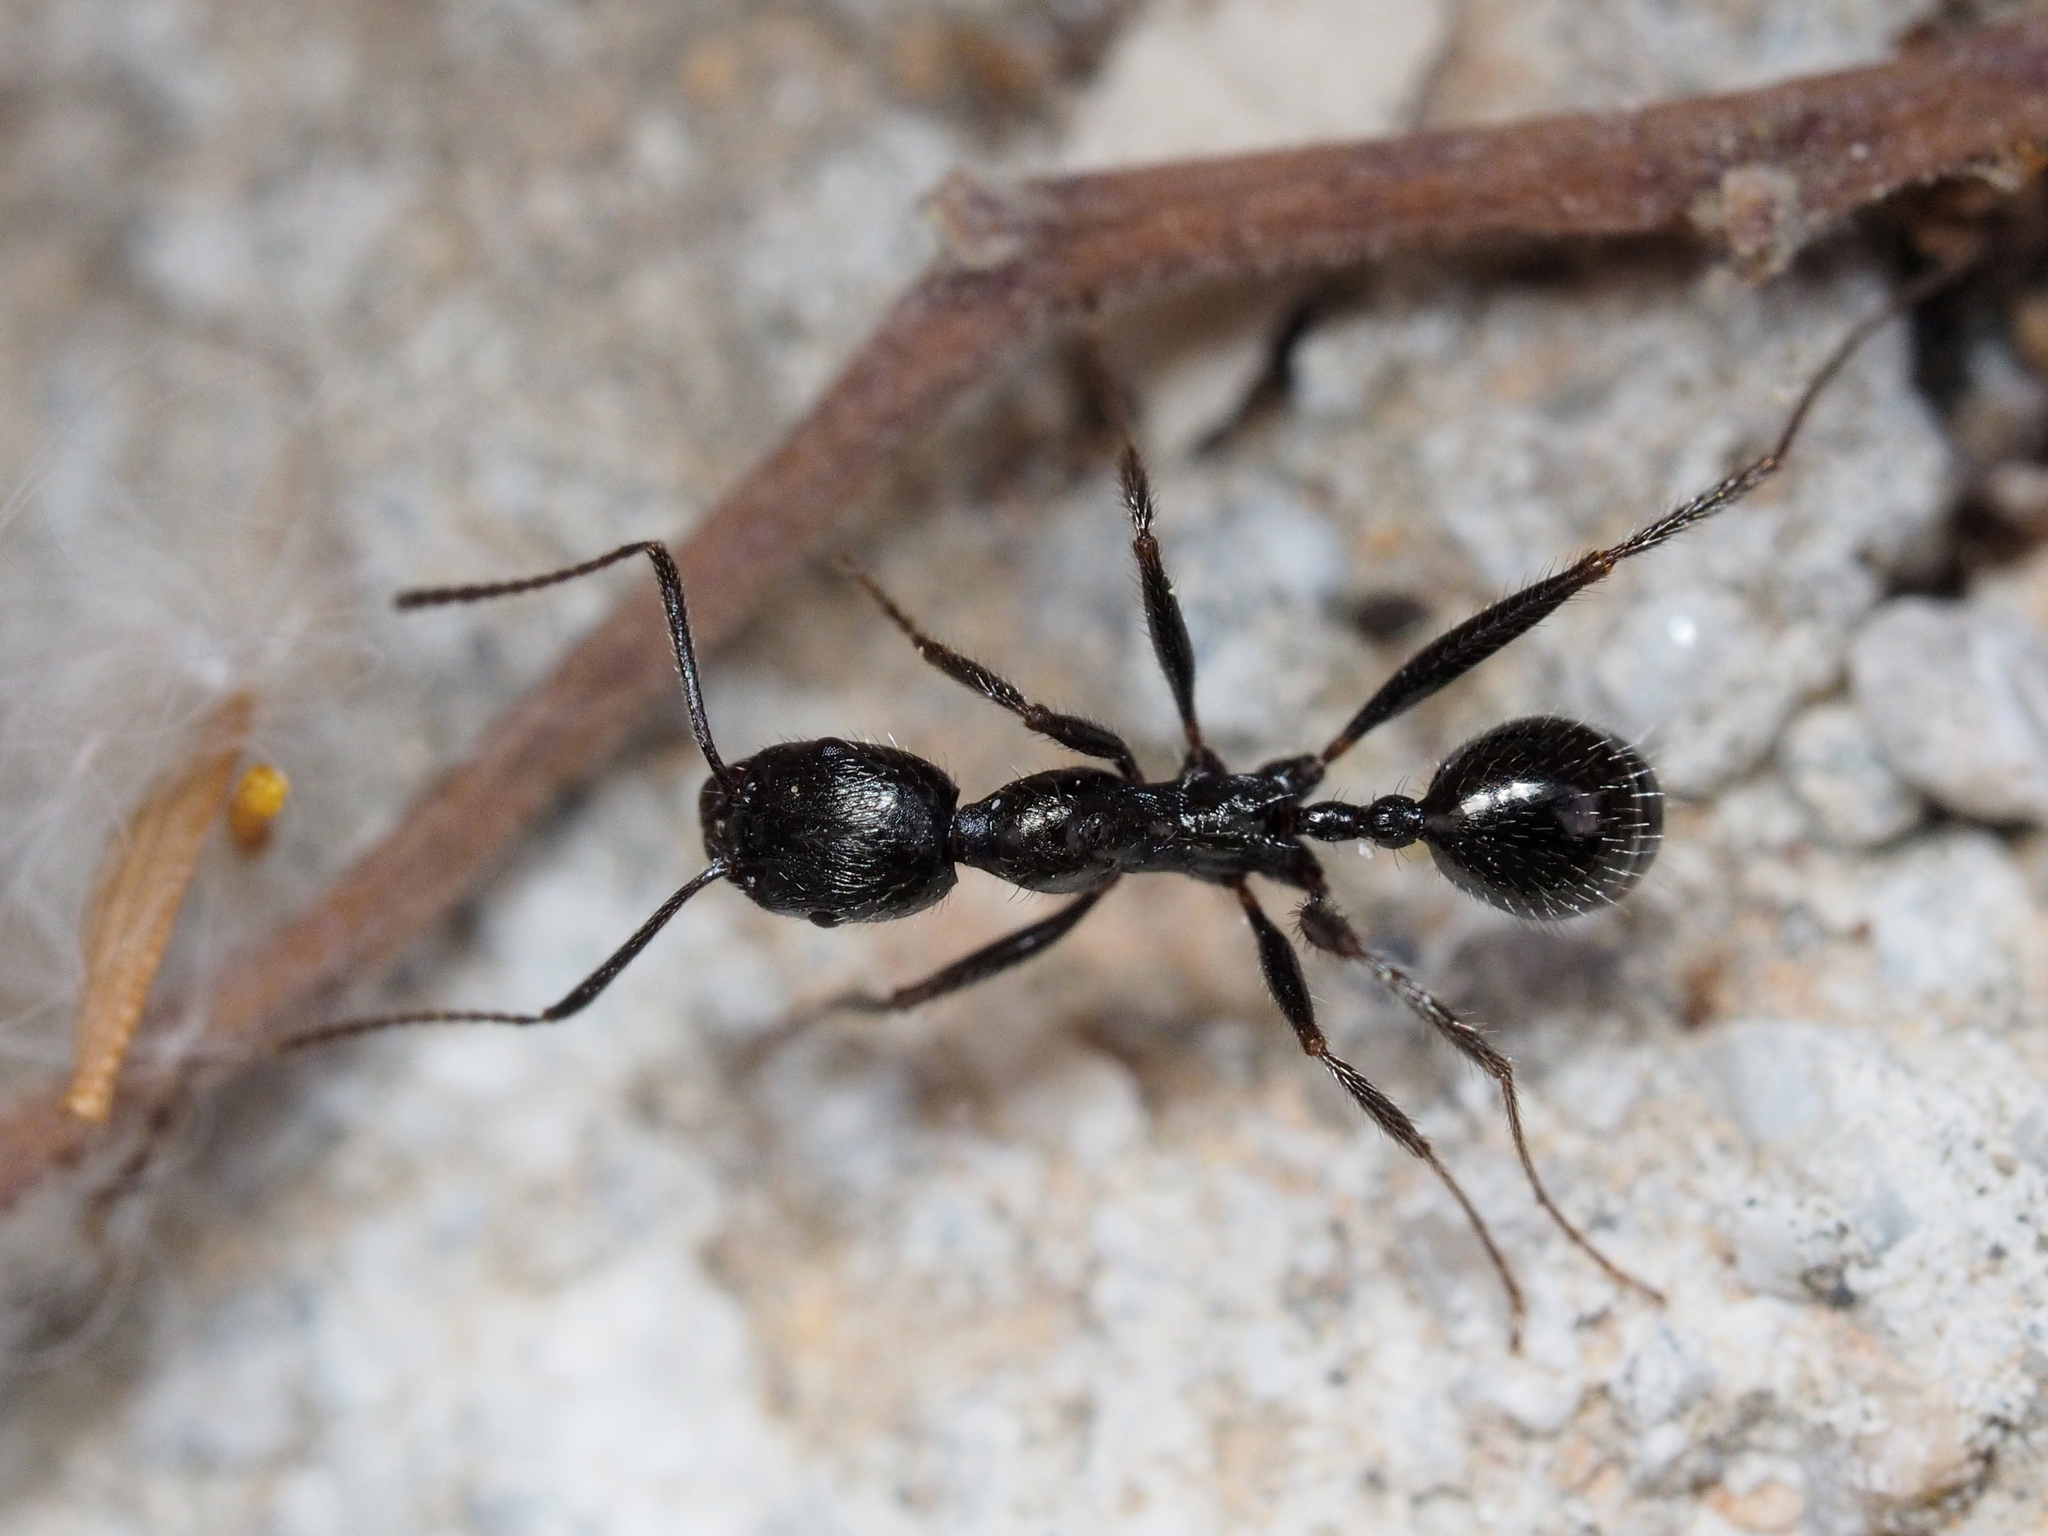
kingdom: Animalia
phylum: Arthropoda
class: Insecta
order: Hymenoptera
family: Formicidae
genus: Aphaenogaster
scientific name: Aphaenogaster semipolita
